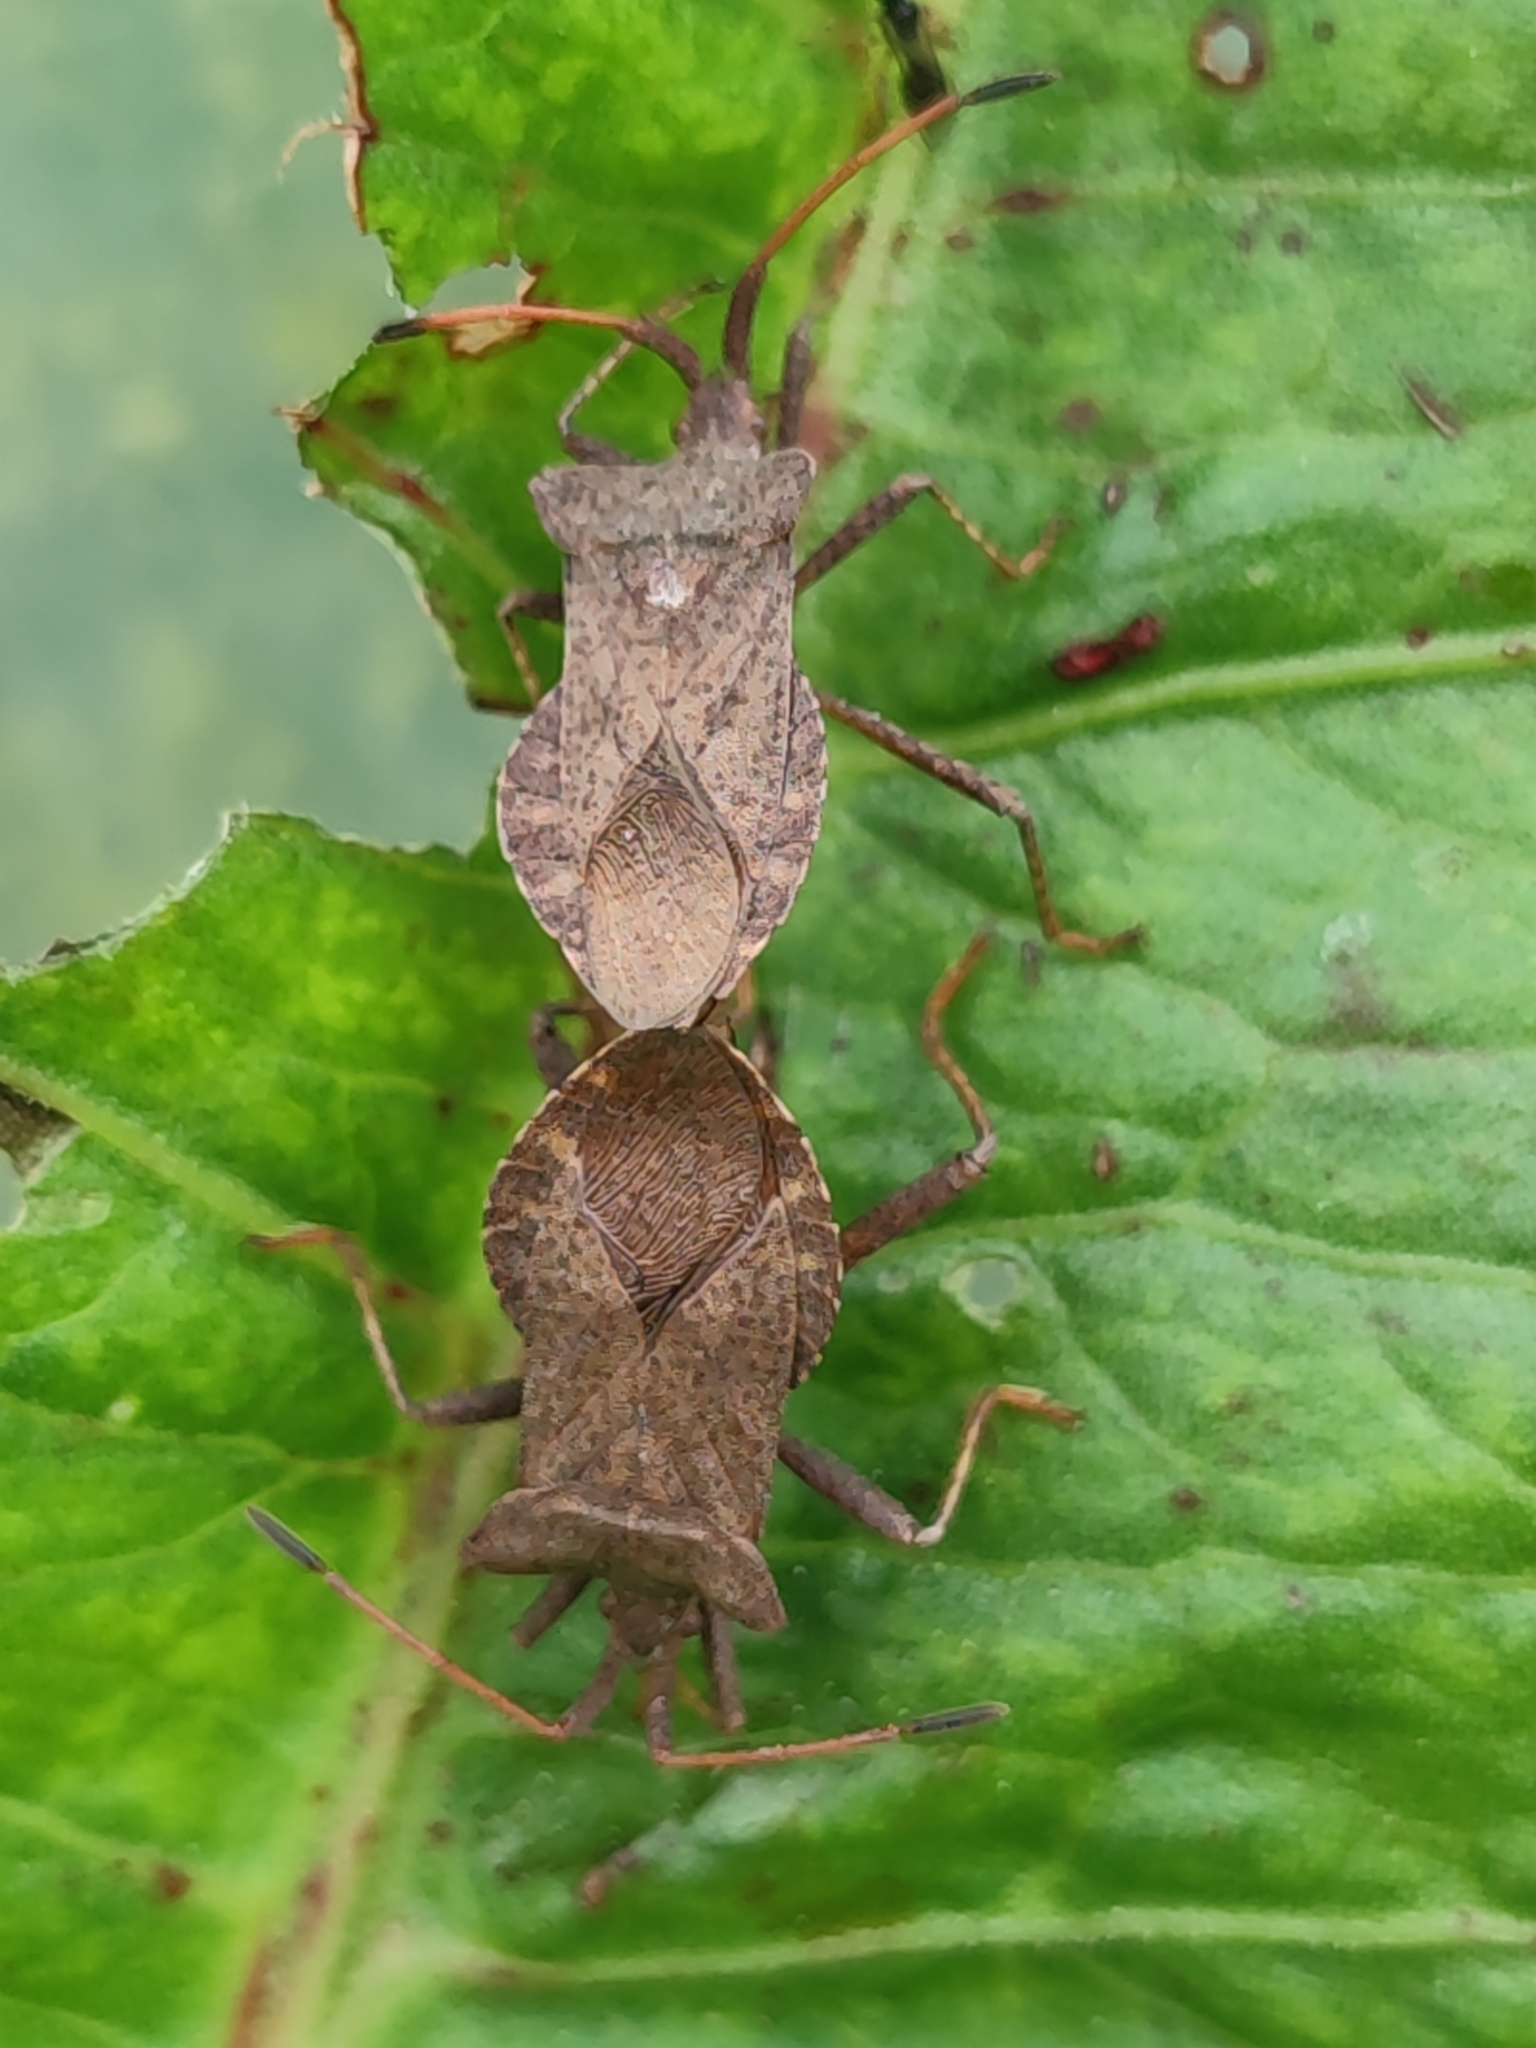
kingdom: Animalia
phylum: Arthropoda
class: Insecta
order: Hemiptera
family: Coreidae
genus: Coreus
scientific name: Coreus marginatus
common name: Dock bug
